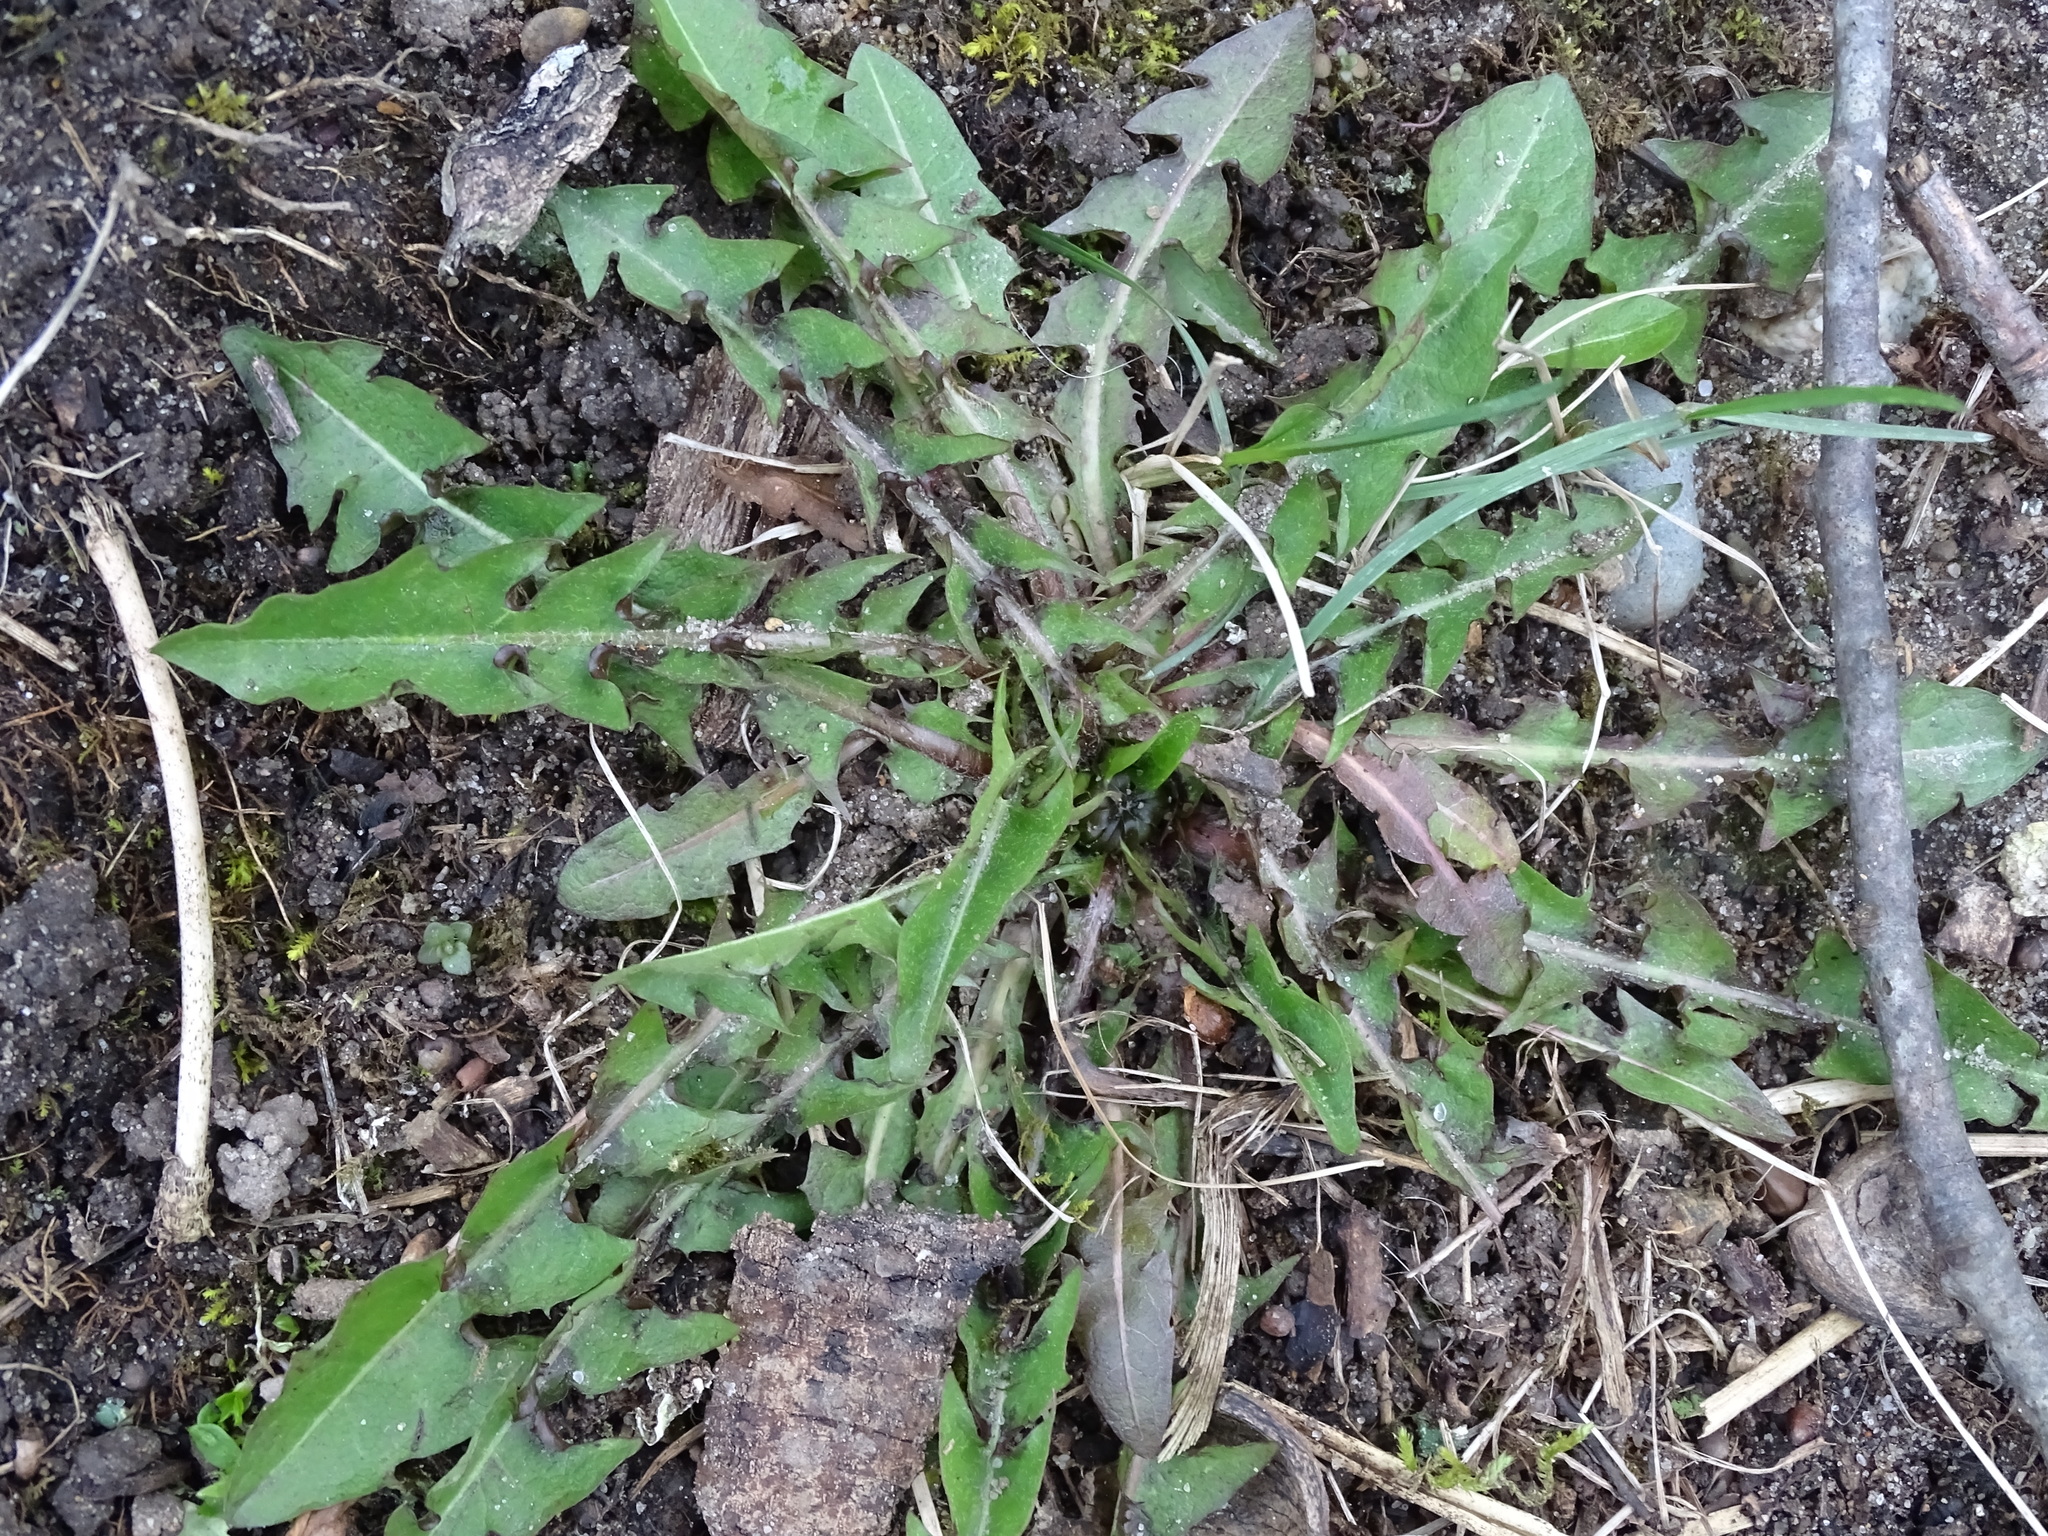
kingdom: Plantae
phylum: Tracheophyta
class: Magnoliopsida
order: Asterales
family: Asteraceae
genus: Taraxacum
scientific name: Taraxacum officinale
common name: Common dandelion
